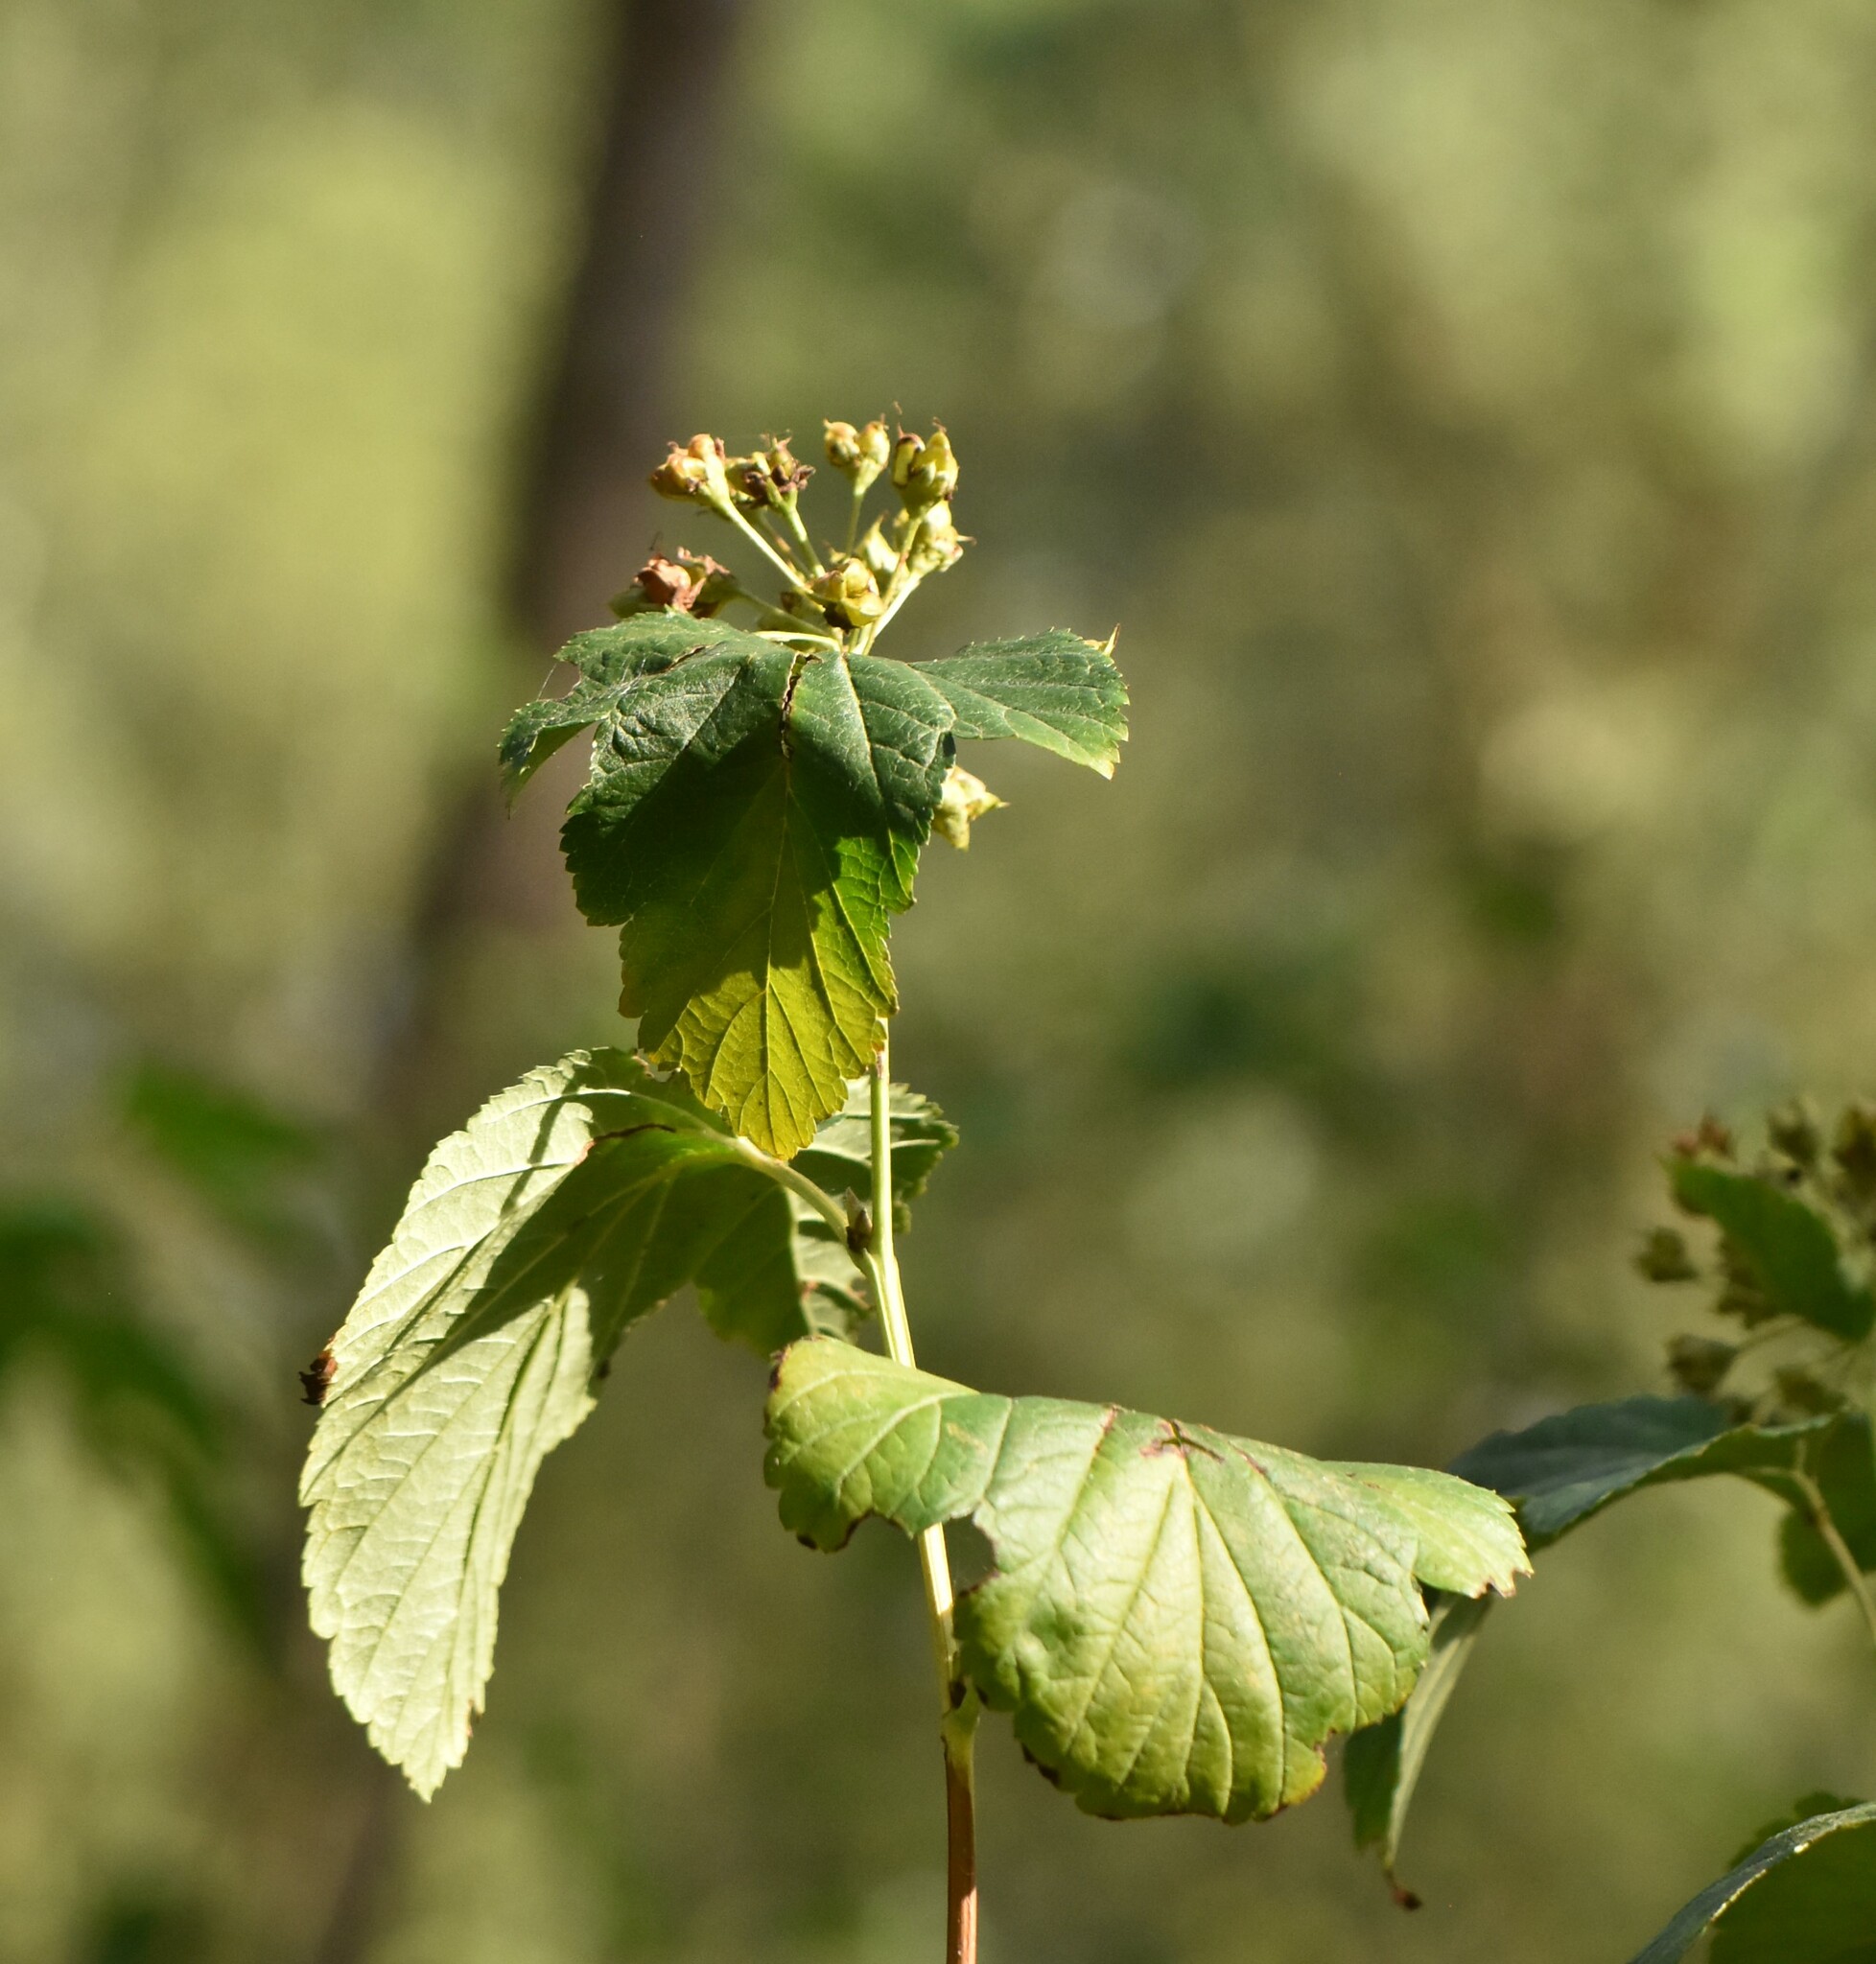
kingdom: Plantae
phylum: Tracheophyta
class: Magnoliopsida
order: Rosales
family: Rosaceae
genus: Physocarpus
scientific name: Physocarpus opulifolius
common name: Ninebark
